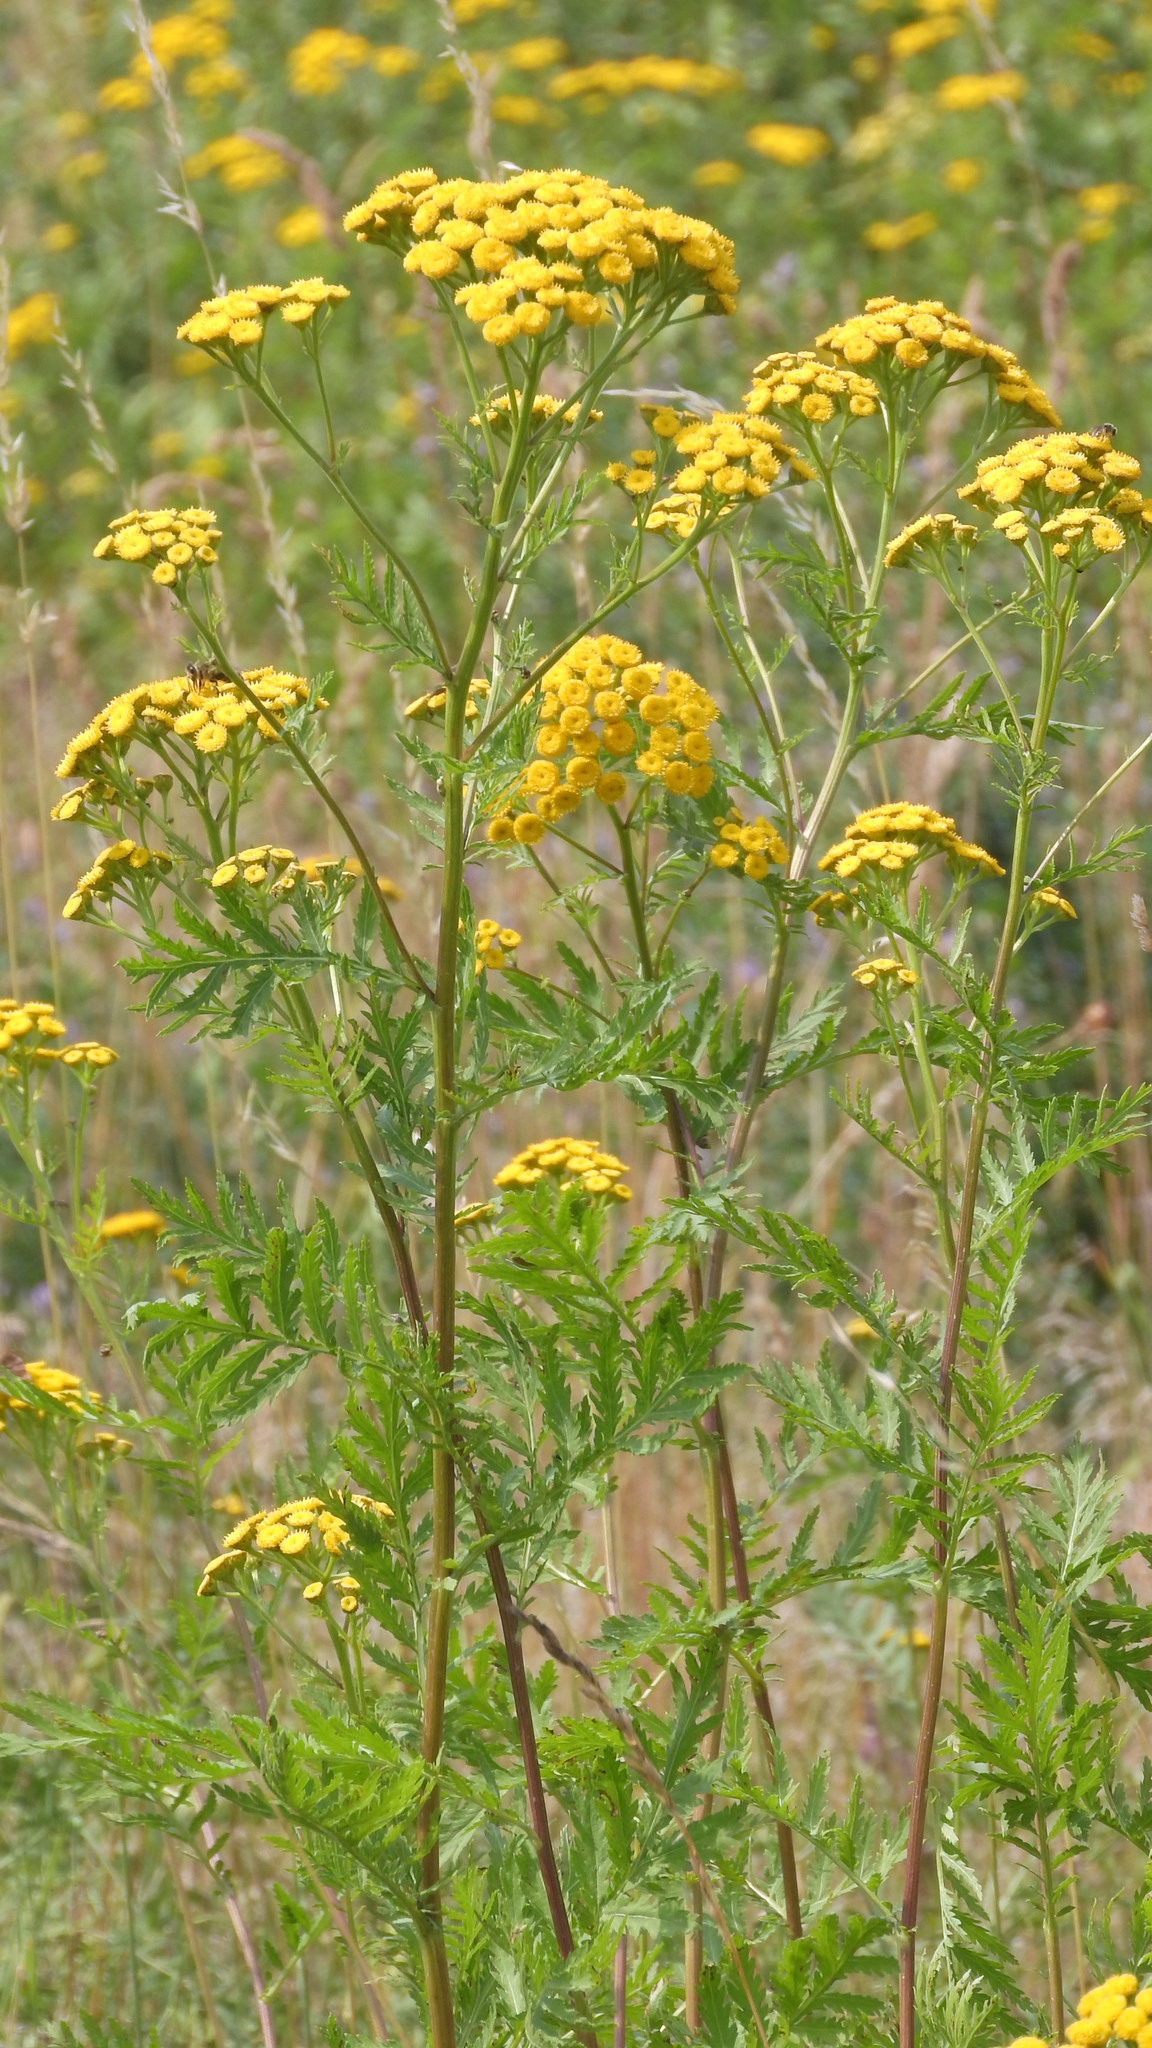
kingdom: Plantae
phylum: Tracheophyta
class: Magnoliopsida
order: Asterales
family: Asteraceae
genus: Tanacetum
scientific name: Tanacetum vulgare
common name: Common tansy
